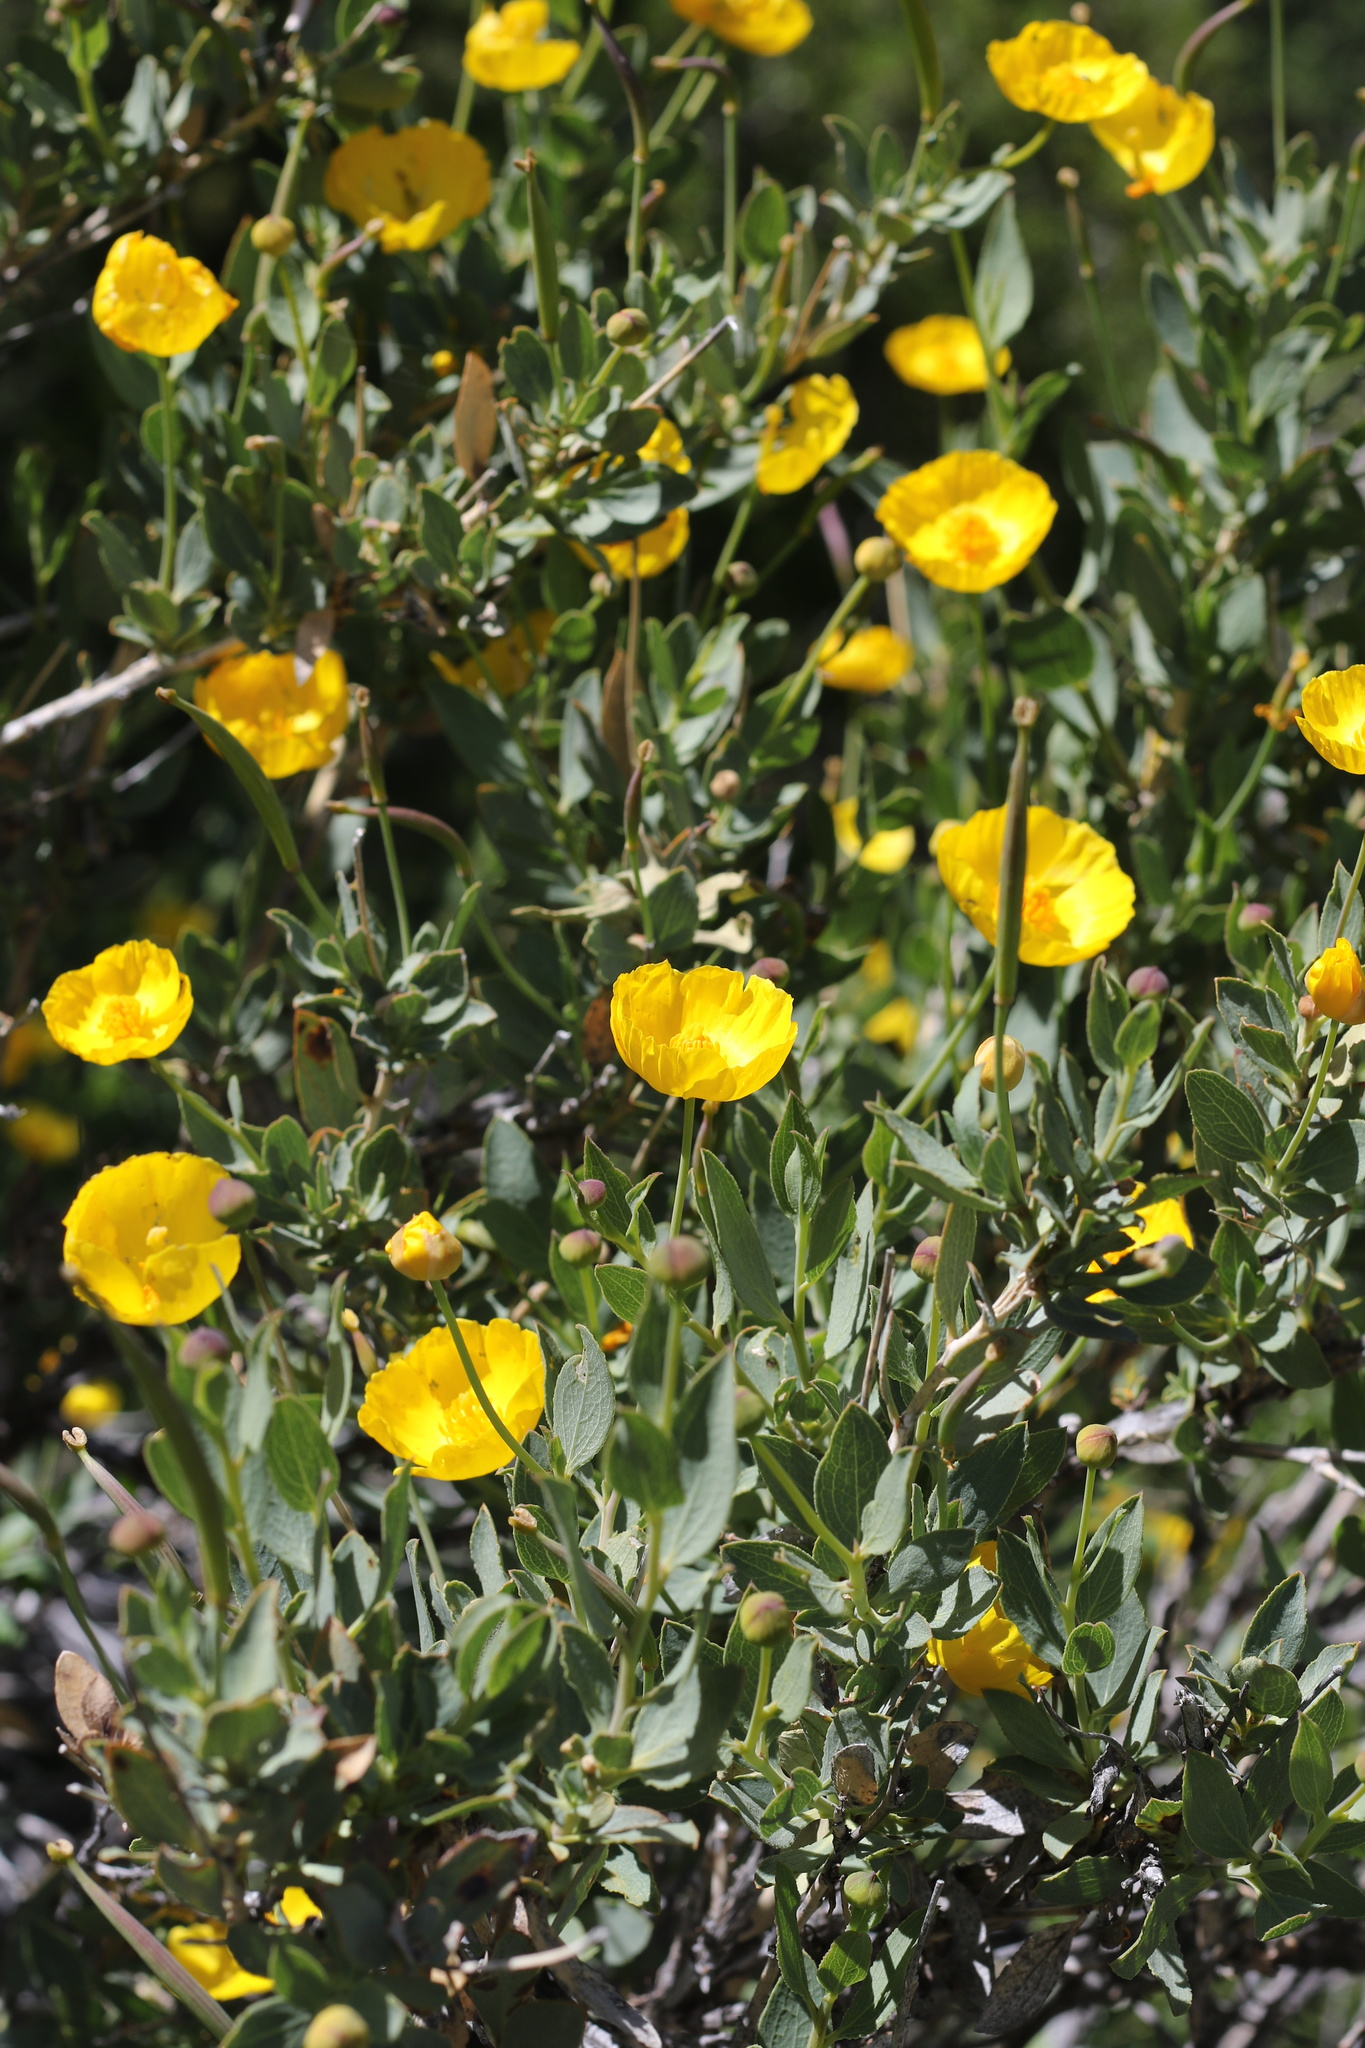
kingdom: Plantae
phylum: Tracheophyta
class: Magnoliopsida
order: Ranunculales
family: Papaveraceae
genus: Dendromecon
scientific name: Dendromecon rigida
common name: Tree poppy
